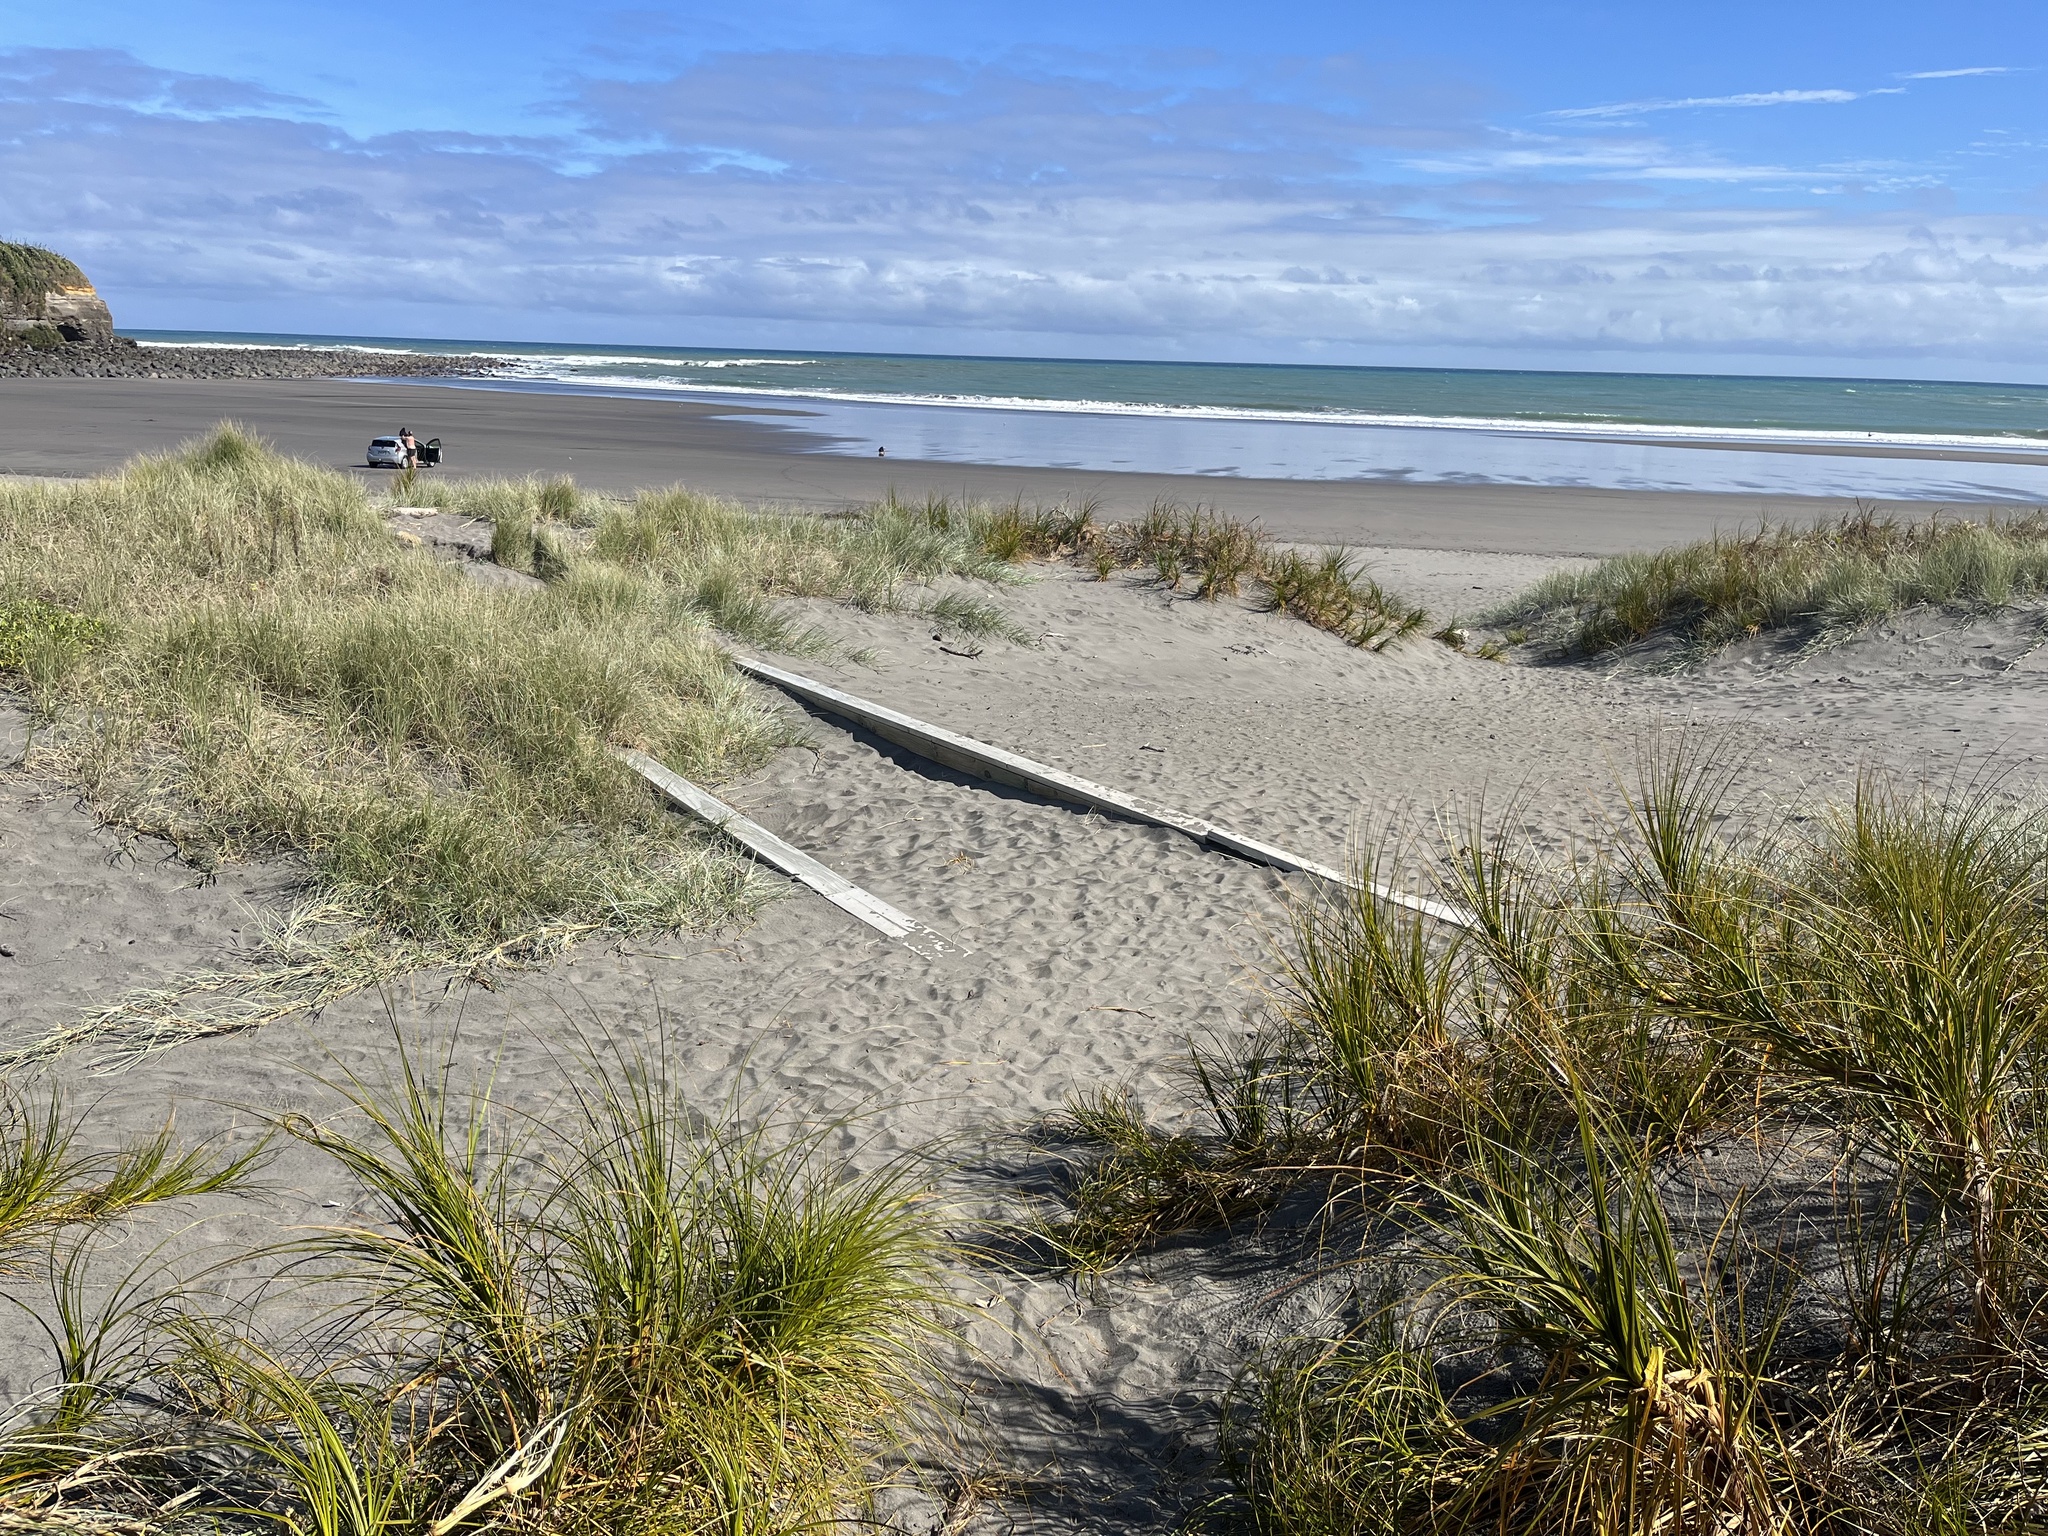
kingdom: Plantae
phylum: Tracheophyta
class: Liliopsida
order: Poales
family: Cyperaceae
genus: Ficinia
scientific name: Ficinia spiralis
